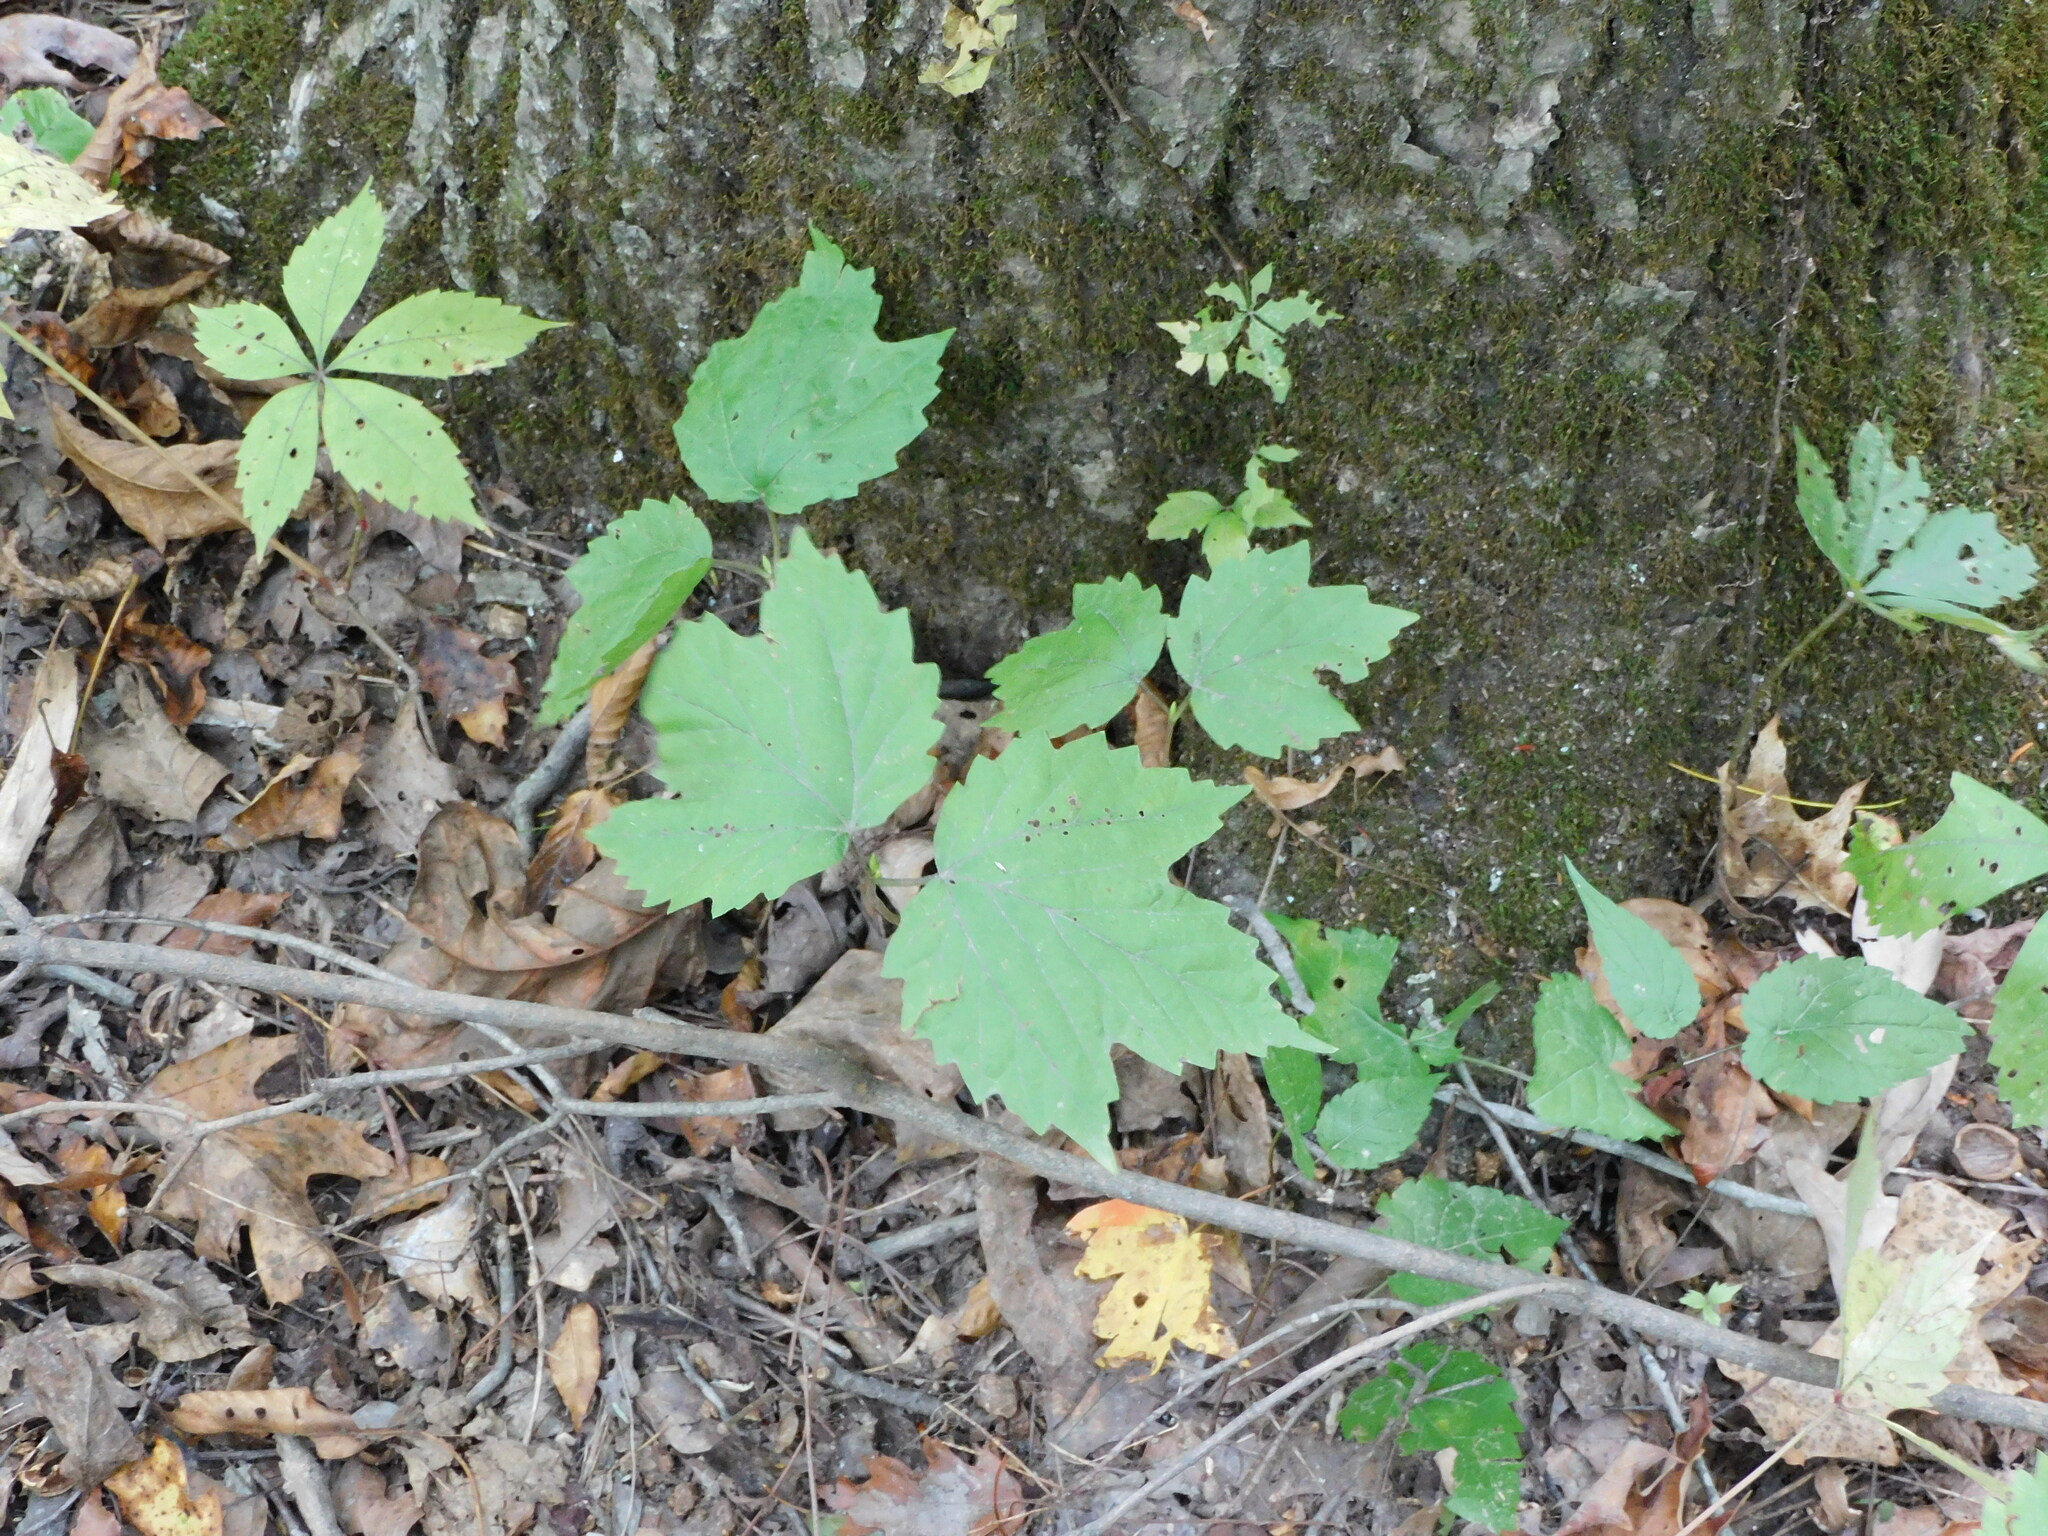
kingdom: Plantae
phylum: Tracheophyta
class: Magnoliopsida
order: Dipsacales
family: Viburnaceae
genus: Viburnum
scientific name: Viburnum acerifolium
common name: Dockmackie
